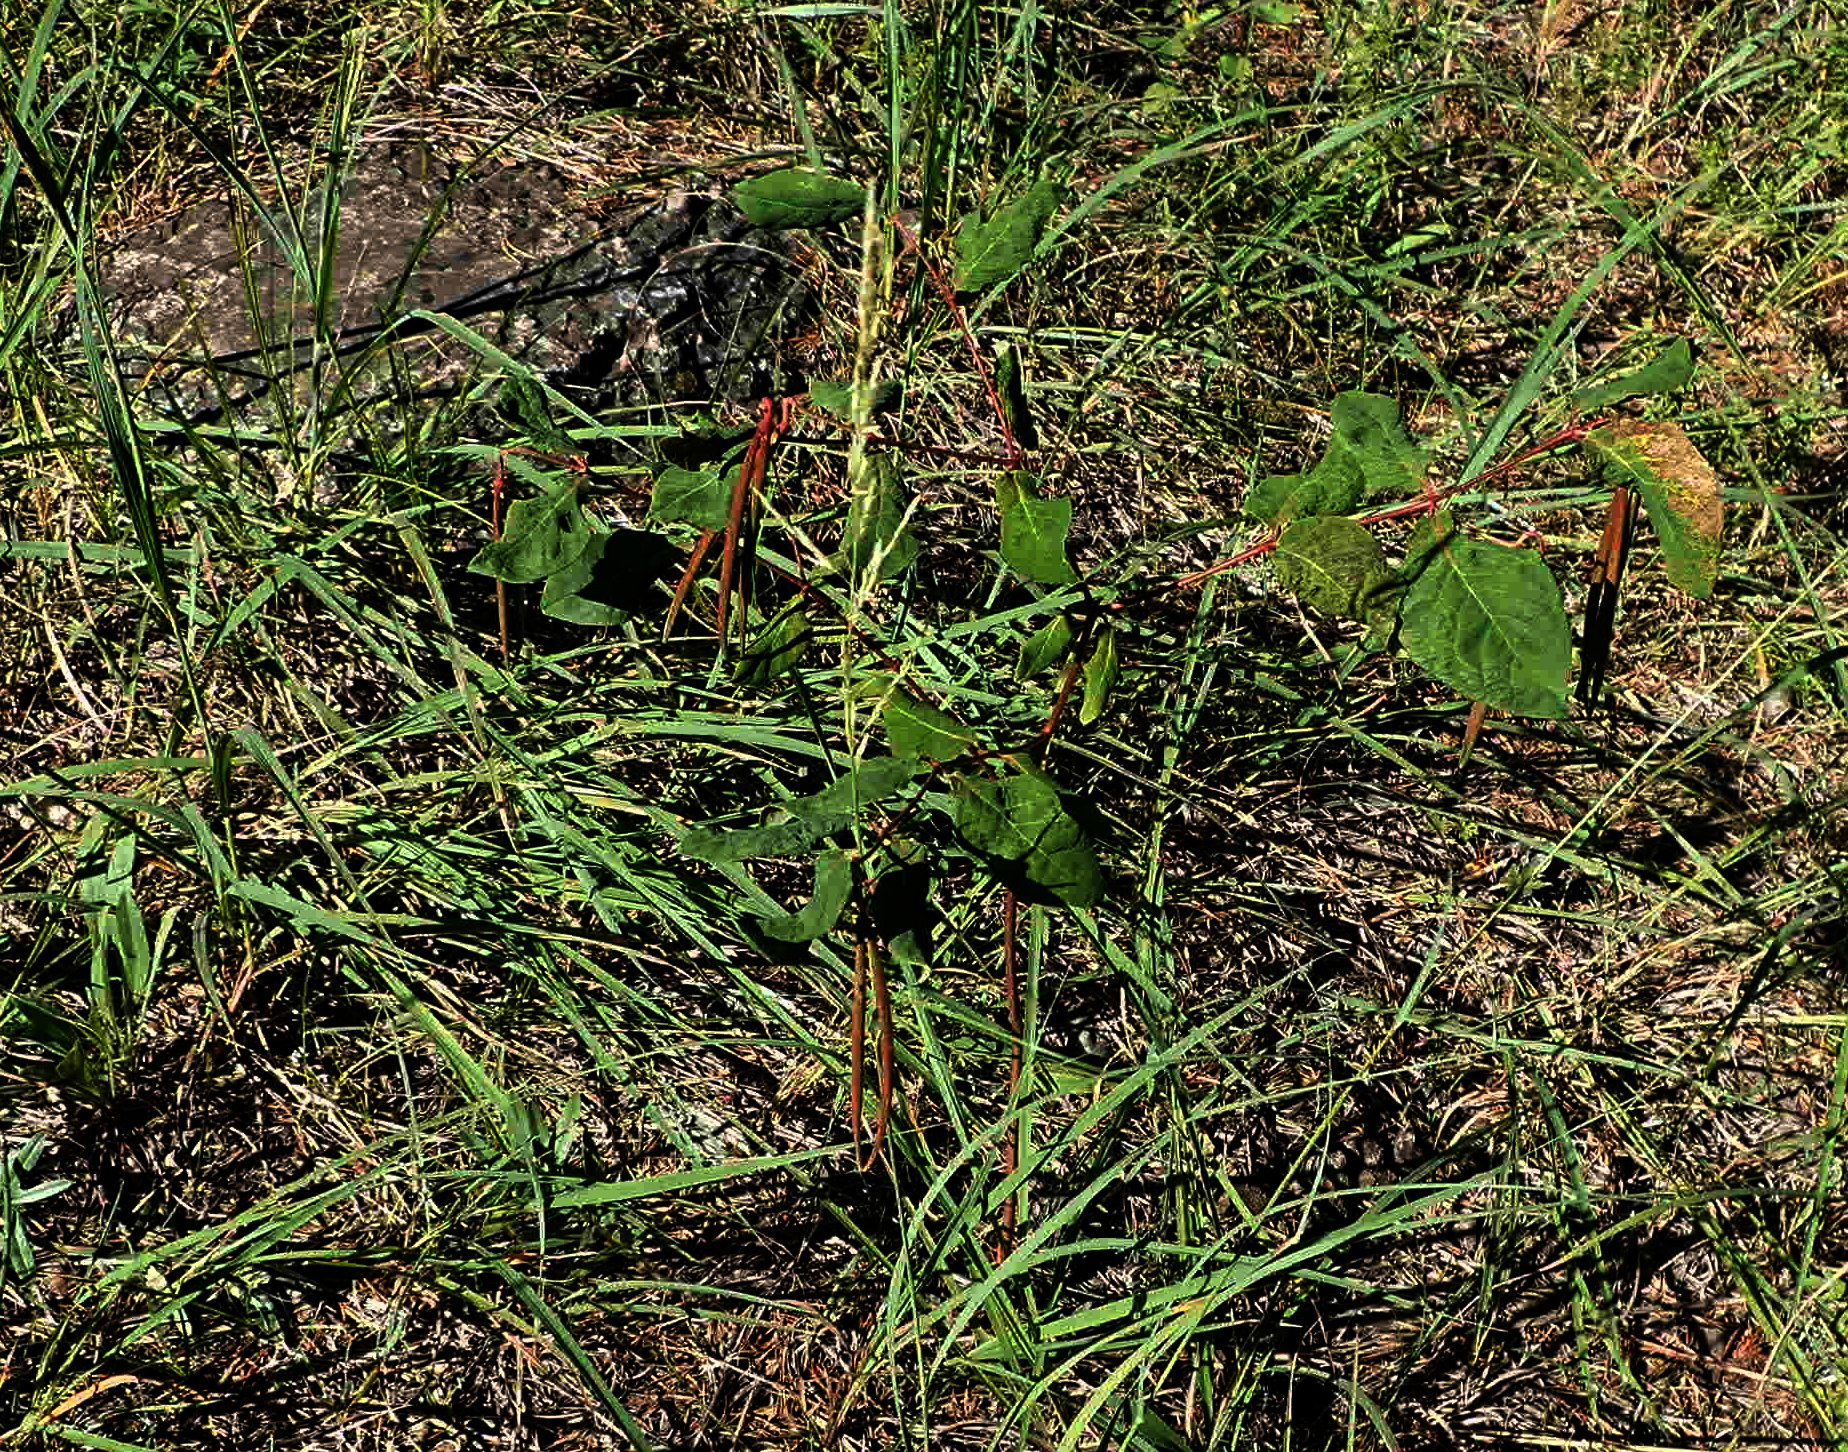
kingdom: Plantae
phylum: Tracheophyta
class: Magnoliopsida
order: Gentianales
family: Apocynaceae
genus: Apocynum
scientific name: Apocynum androsaemifolium
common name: Spreading dogbane
